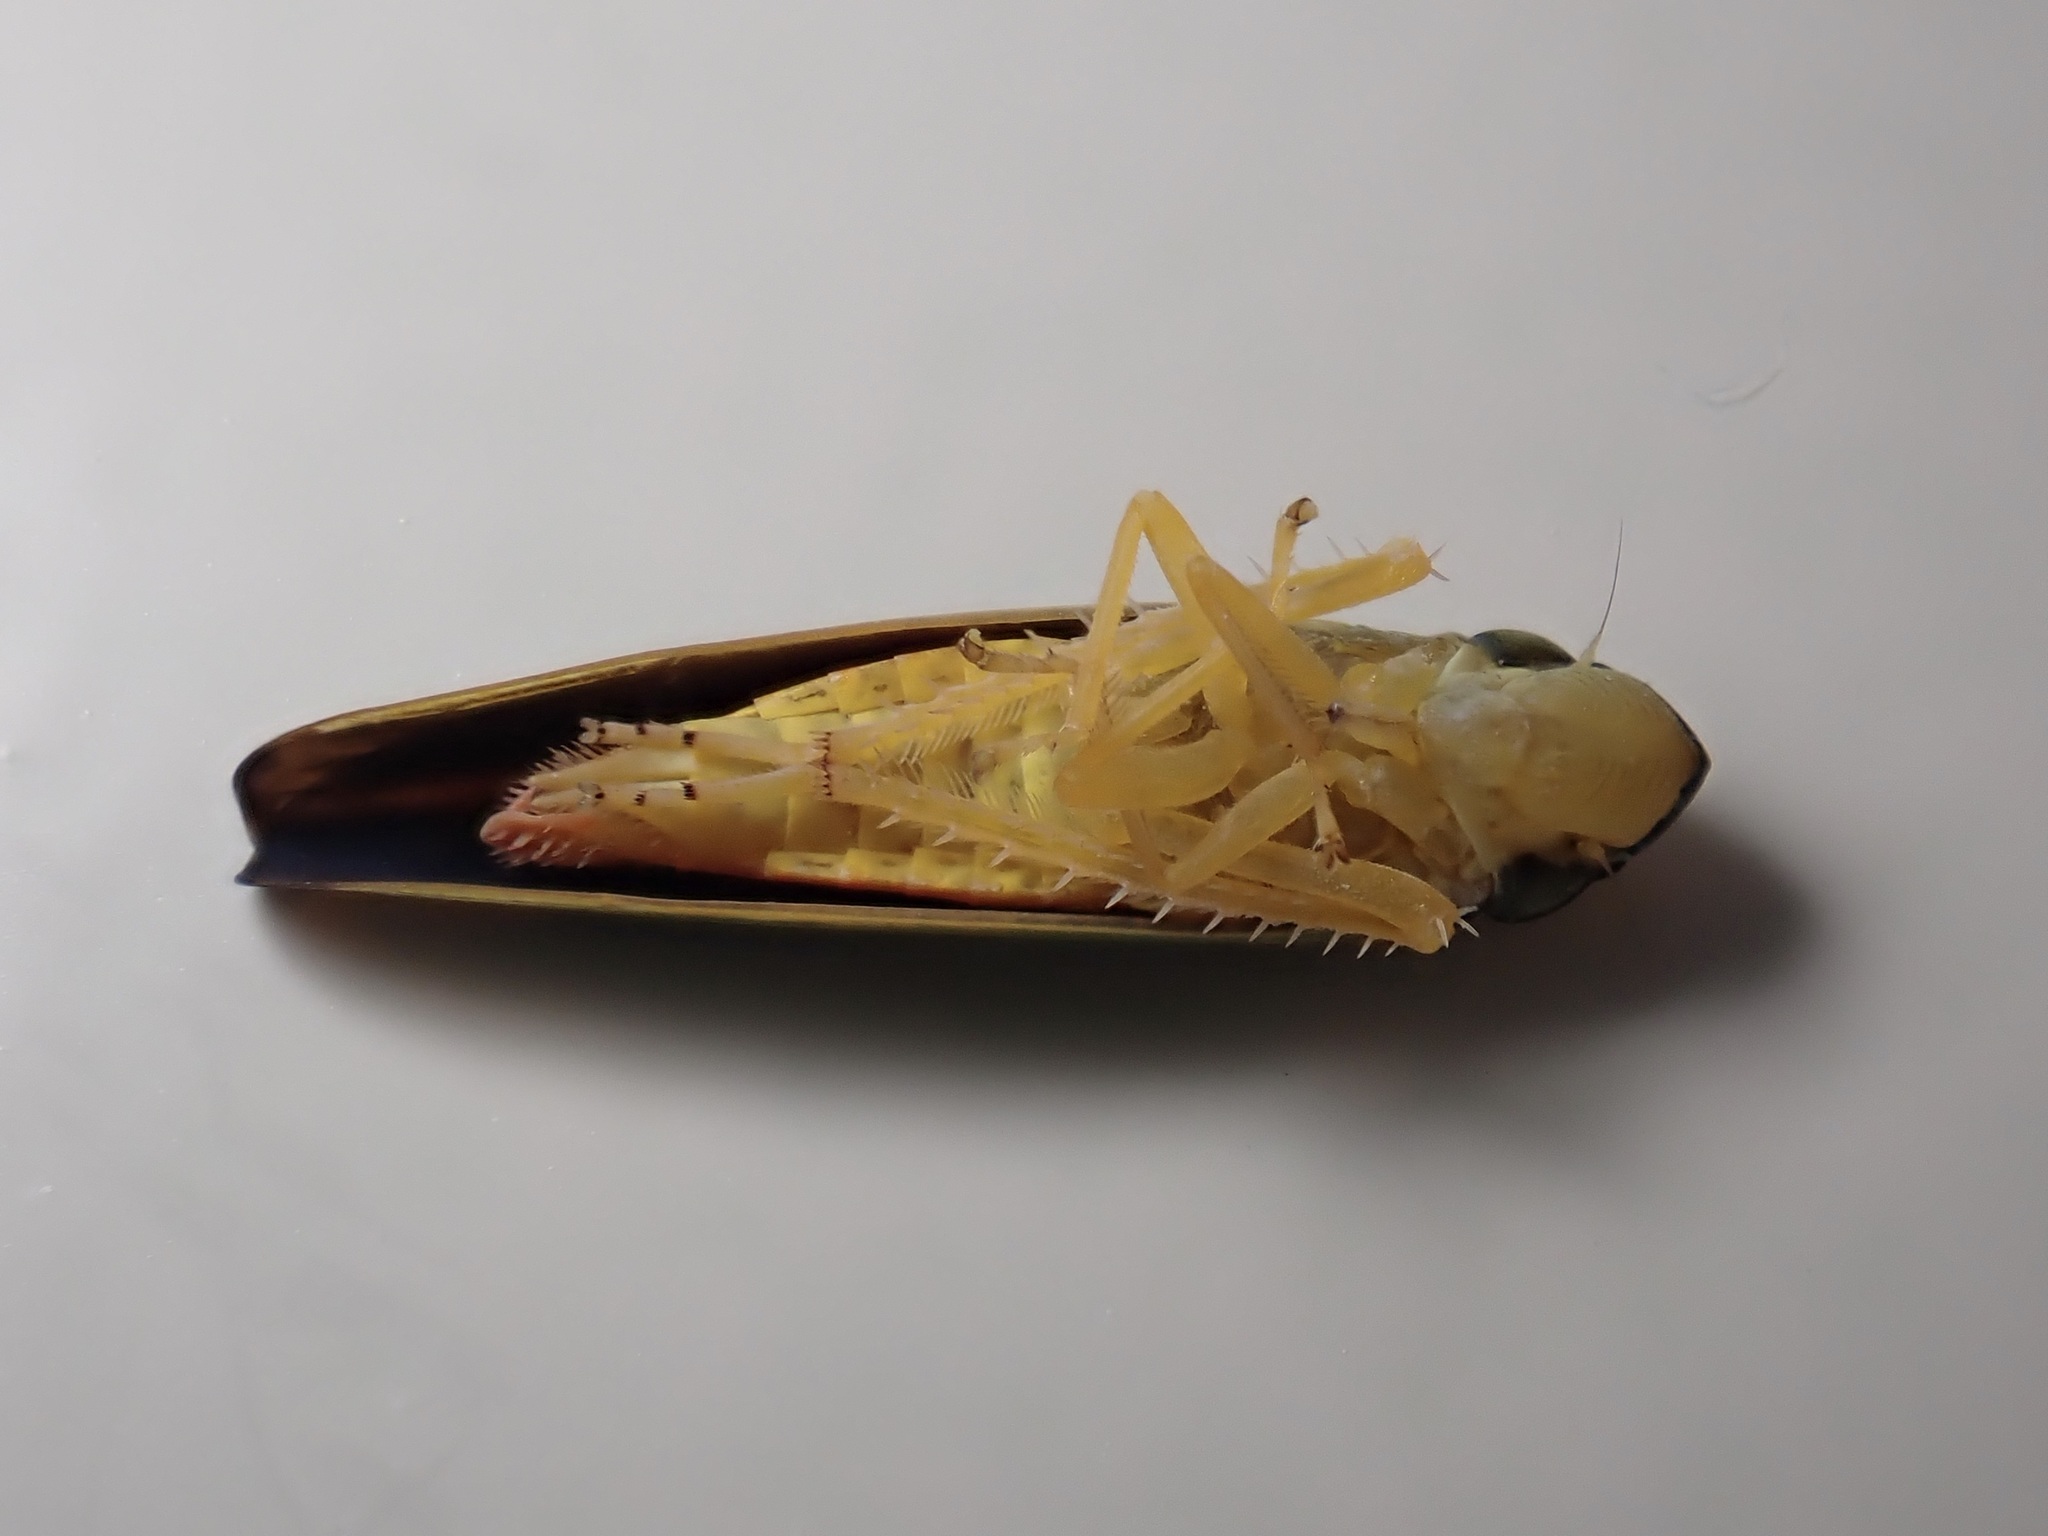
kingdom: Animalia
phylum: Arthropoda
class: Insecta
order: Hemiptera
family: Cicadellidae
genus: Graphocephala
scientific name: Graphocephala fennahi
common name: Rhododendron leafhopper
